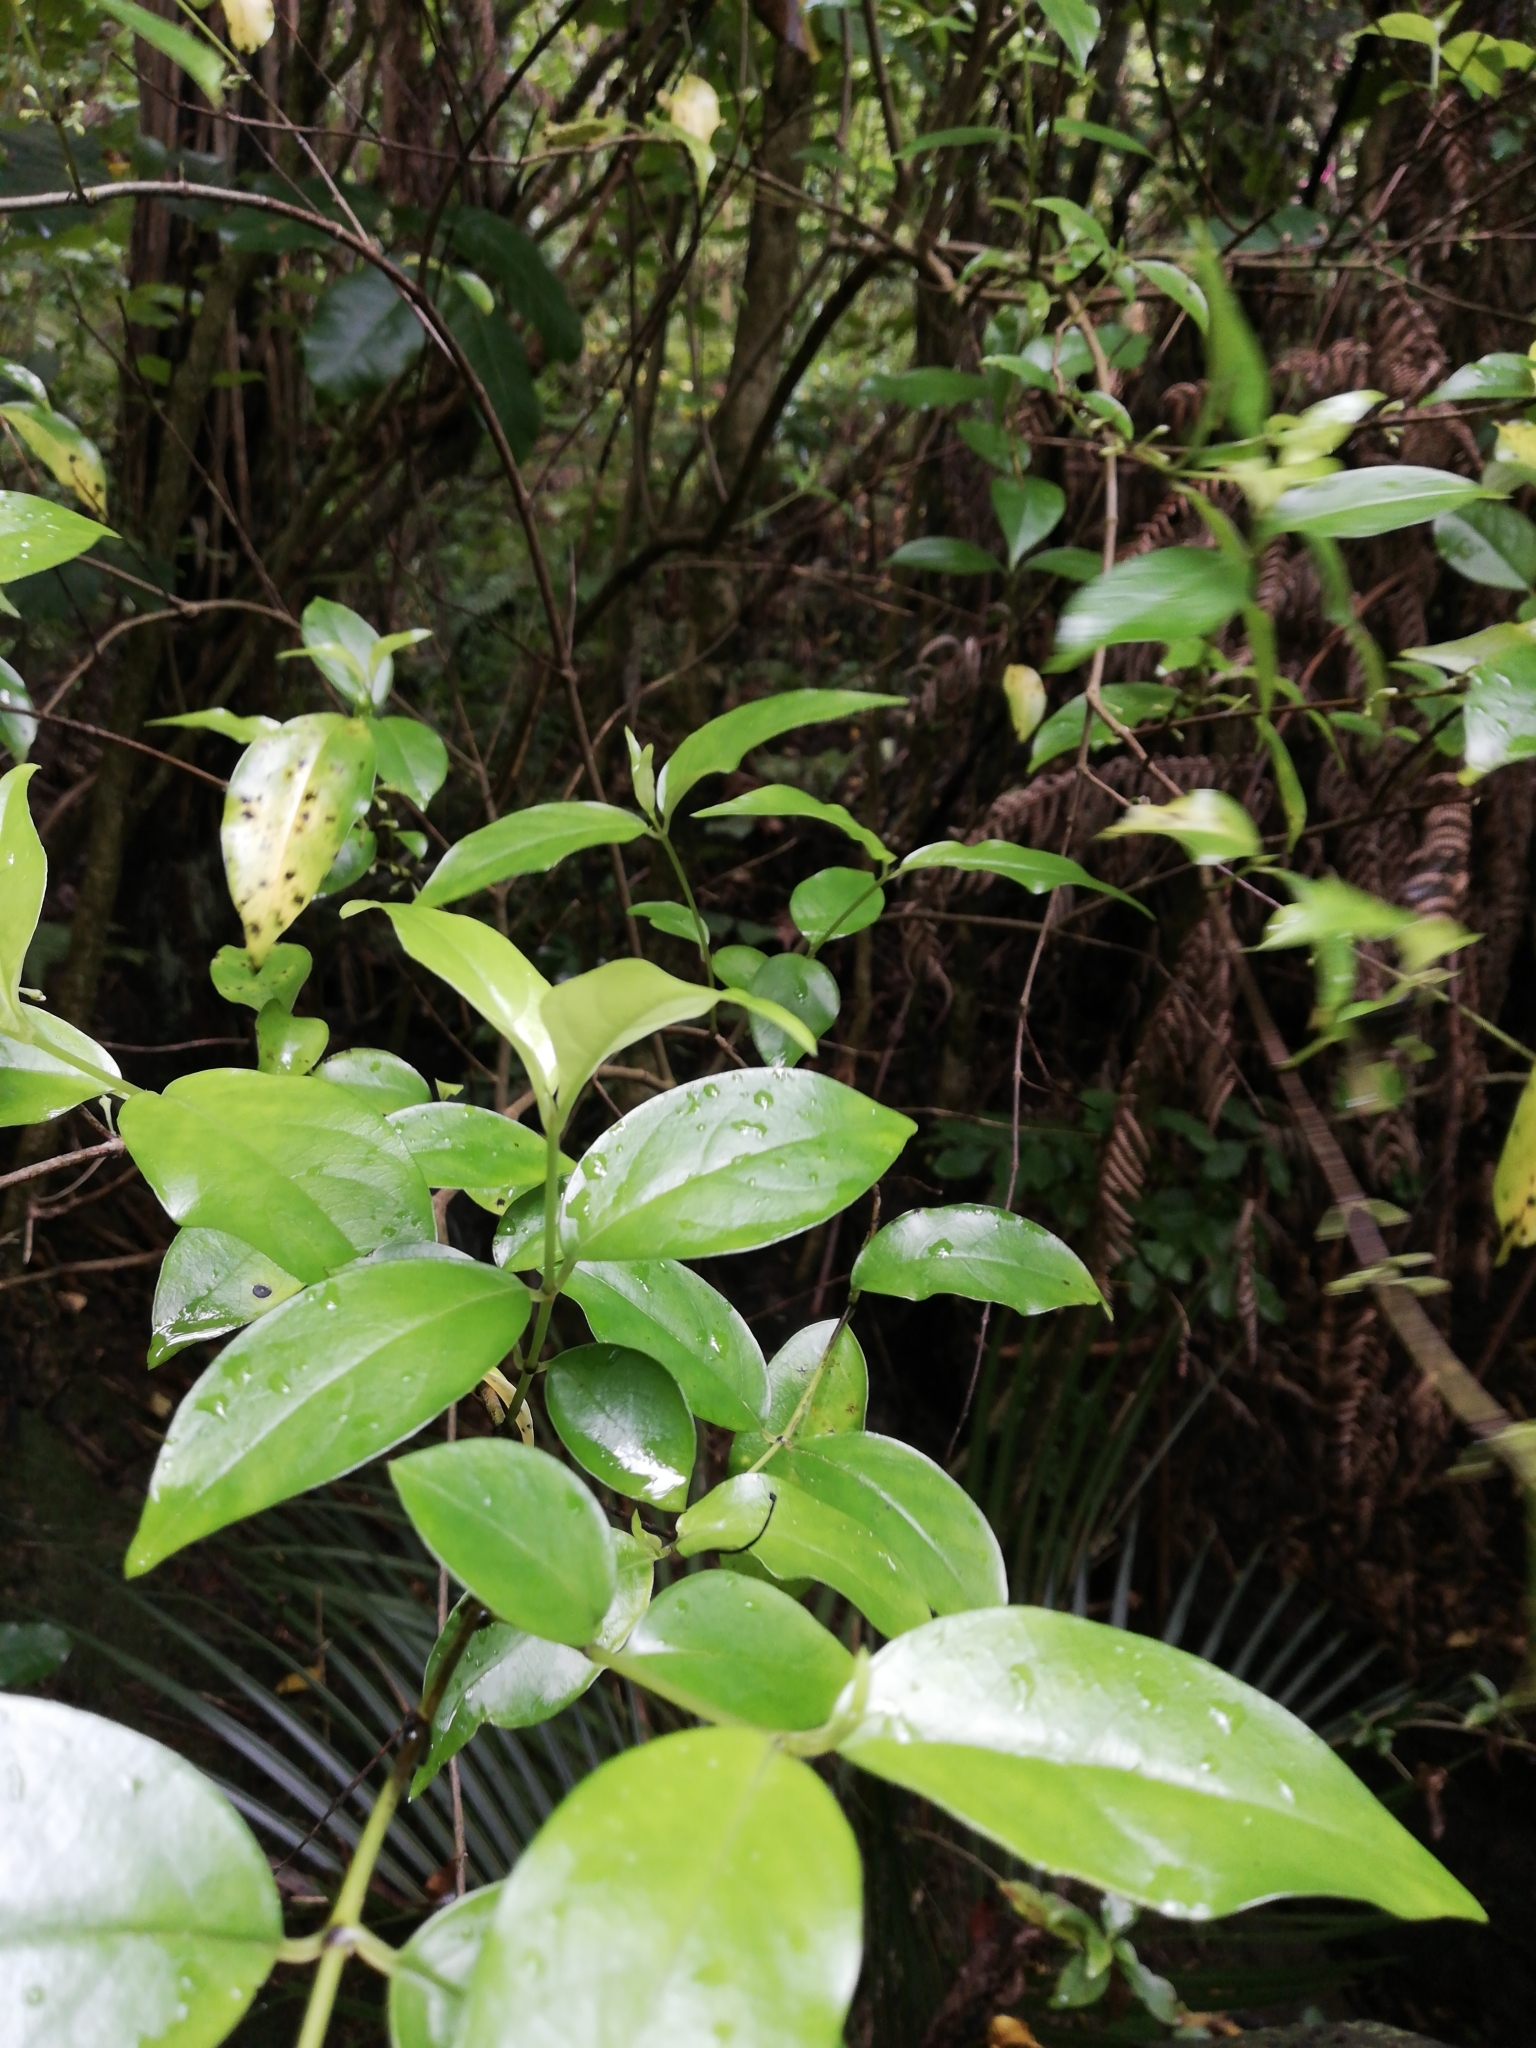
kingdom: Plantae
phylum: Tracheophyta
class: Magnoliopsida
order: Gentianales
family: Loganiaceae
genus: Geniostoma
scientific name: Geniostoma ligustrifolium
